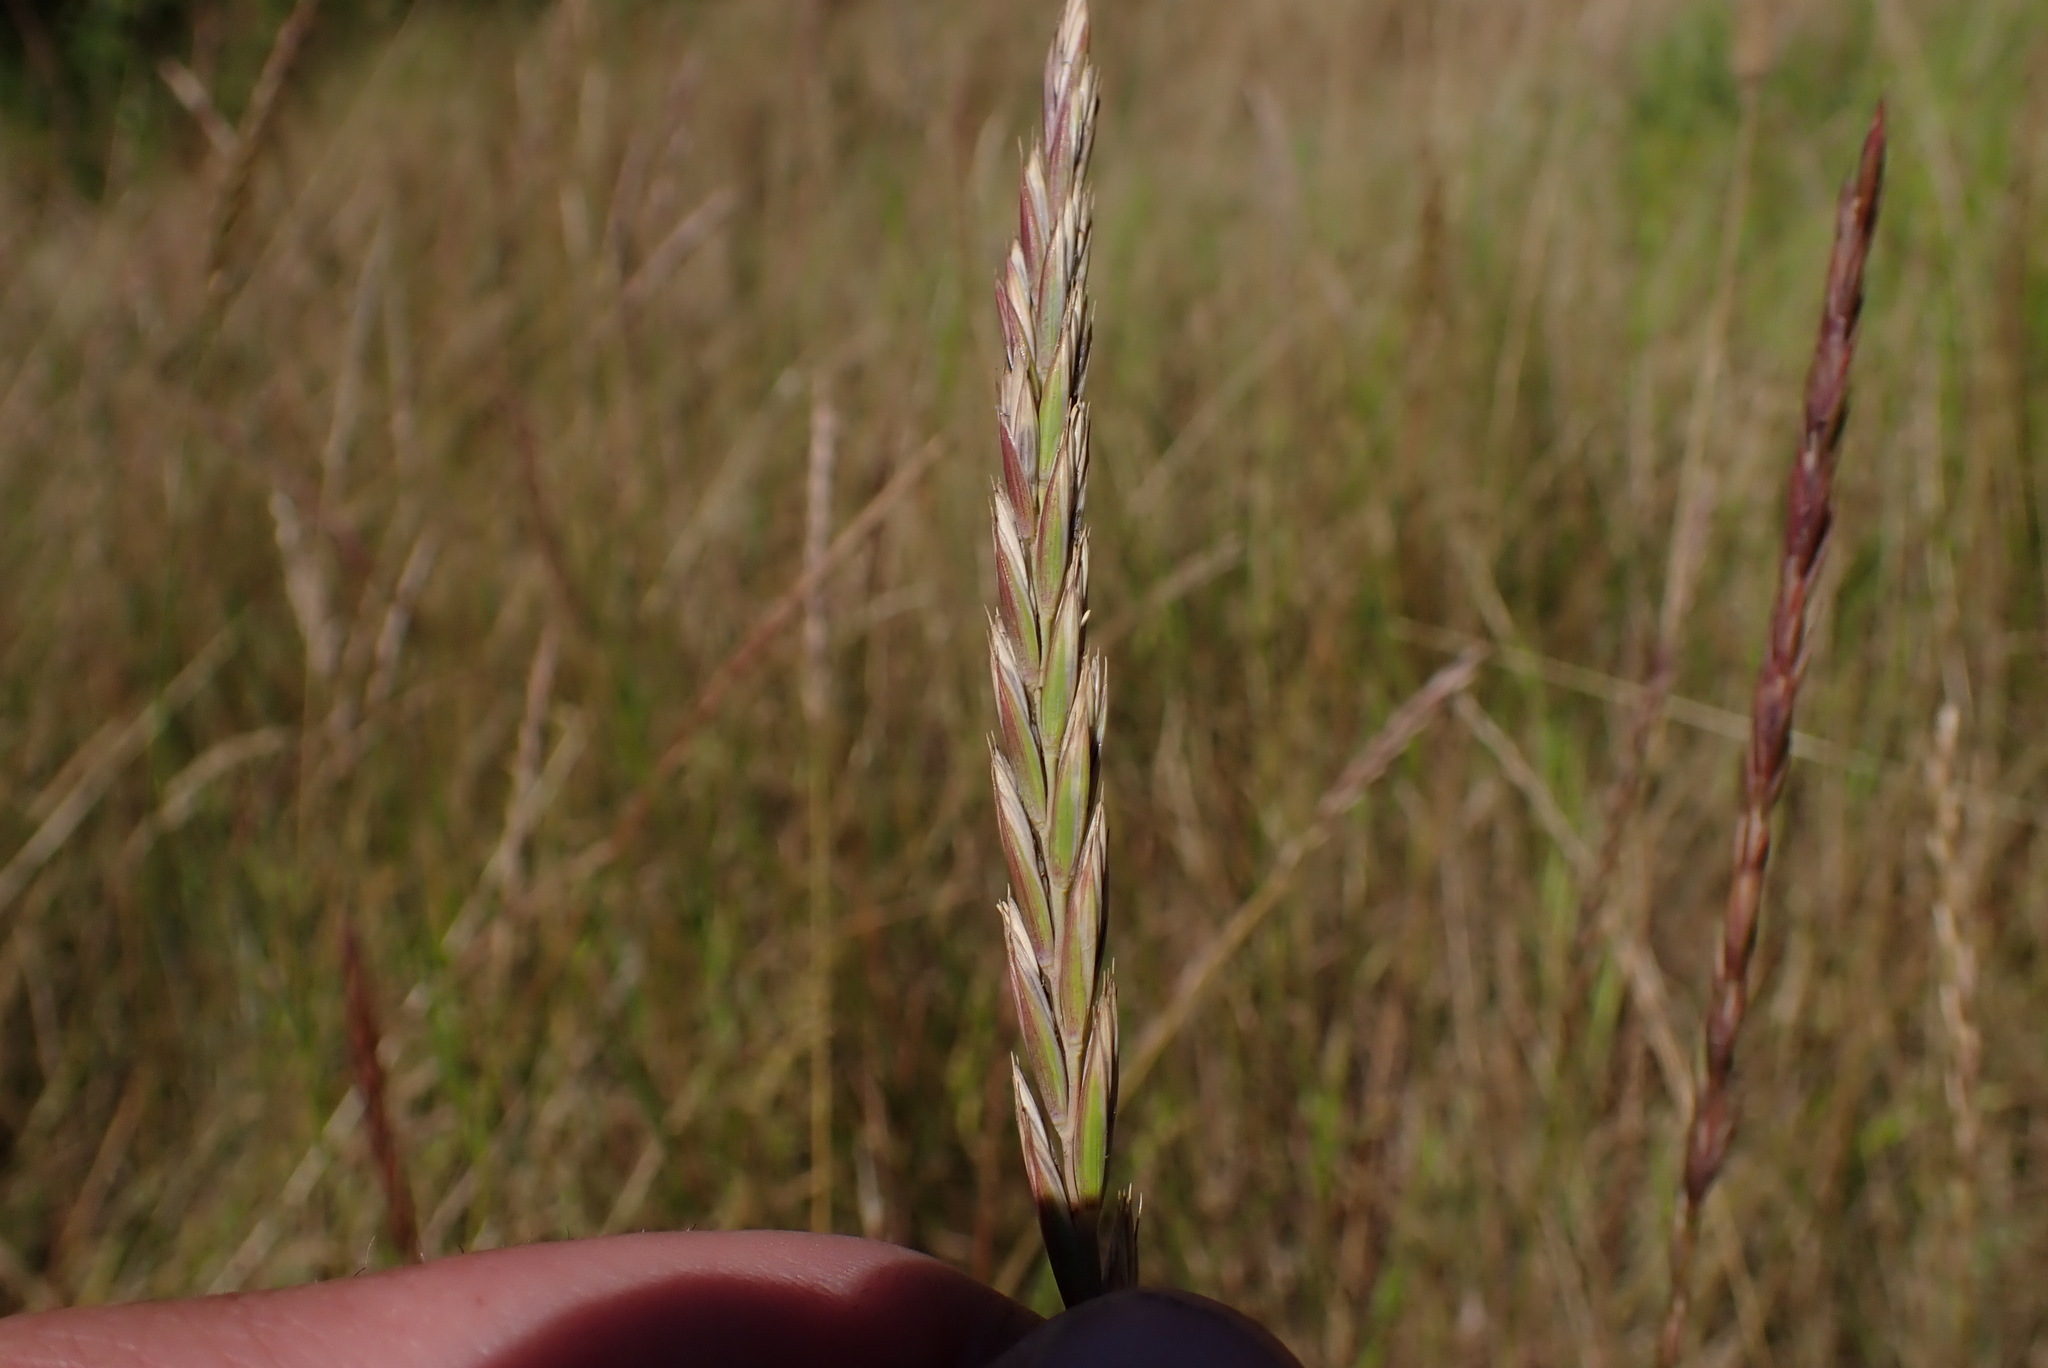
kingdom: Plantae
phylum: Tracheophyta
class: Liliopsida
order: Poales
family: Poaceae
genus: Elymus
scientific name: Elymus repens
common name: Quackgrass
